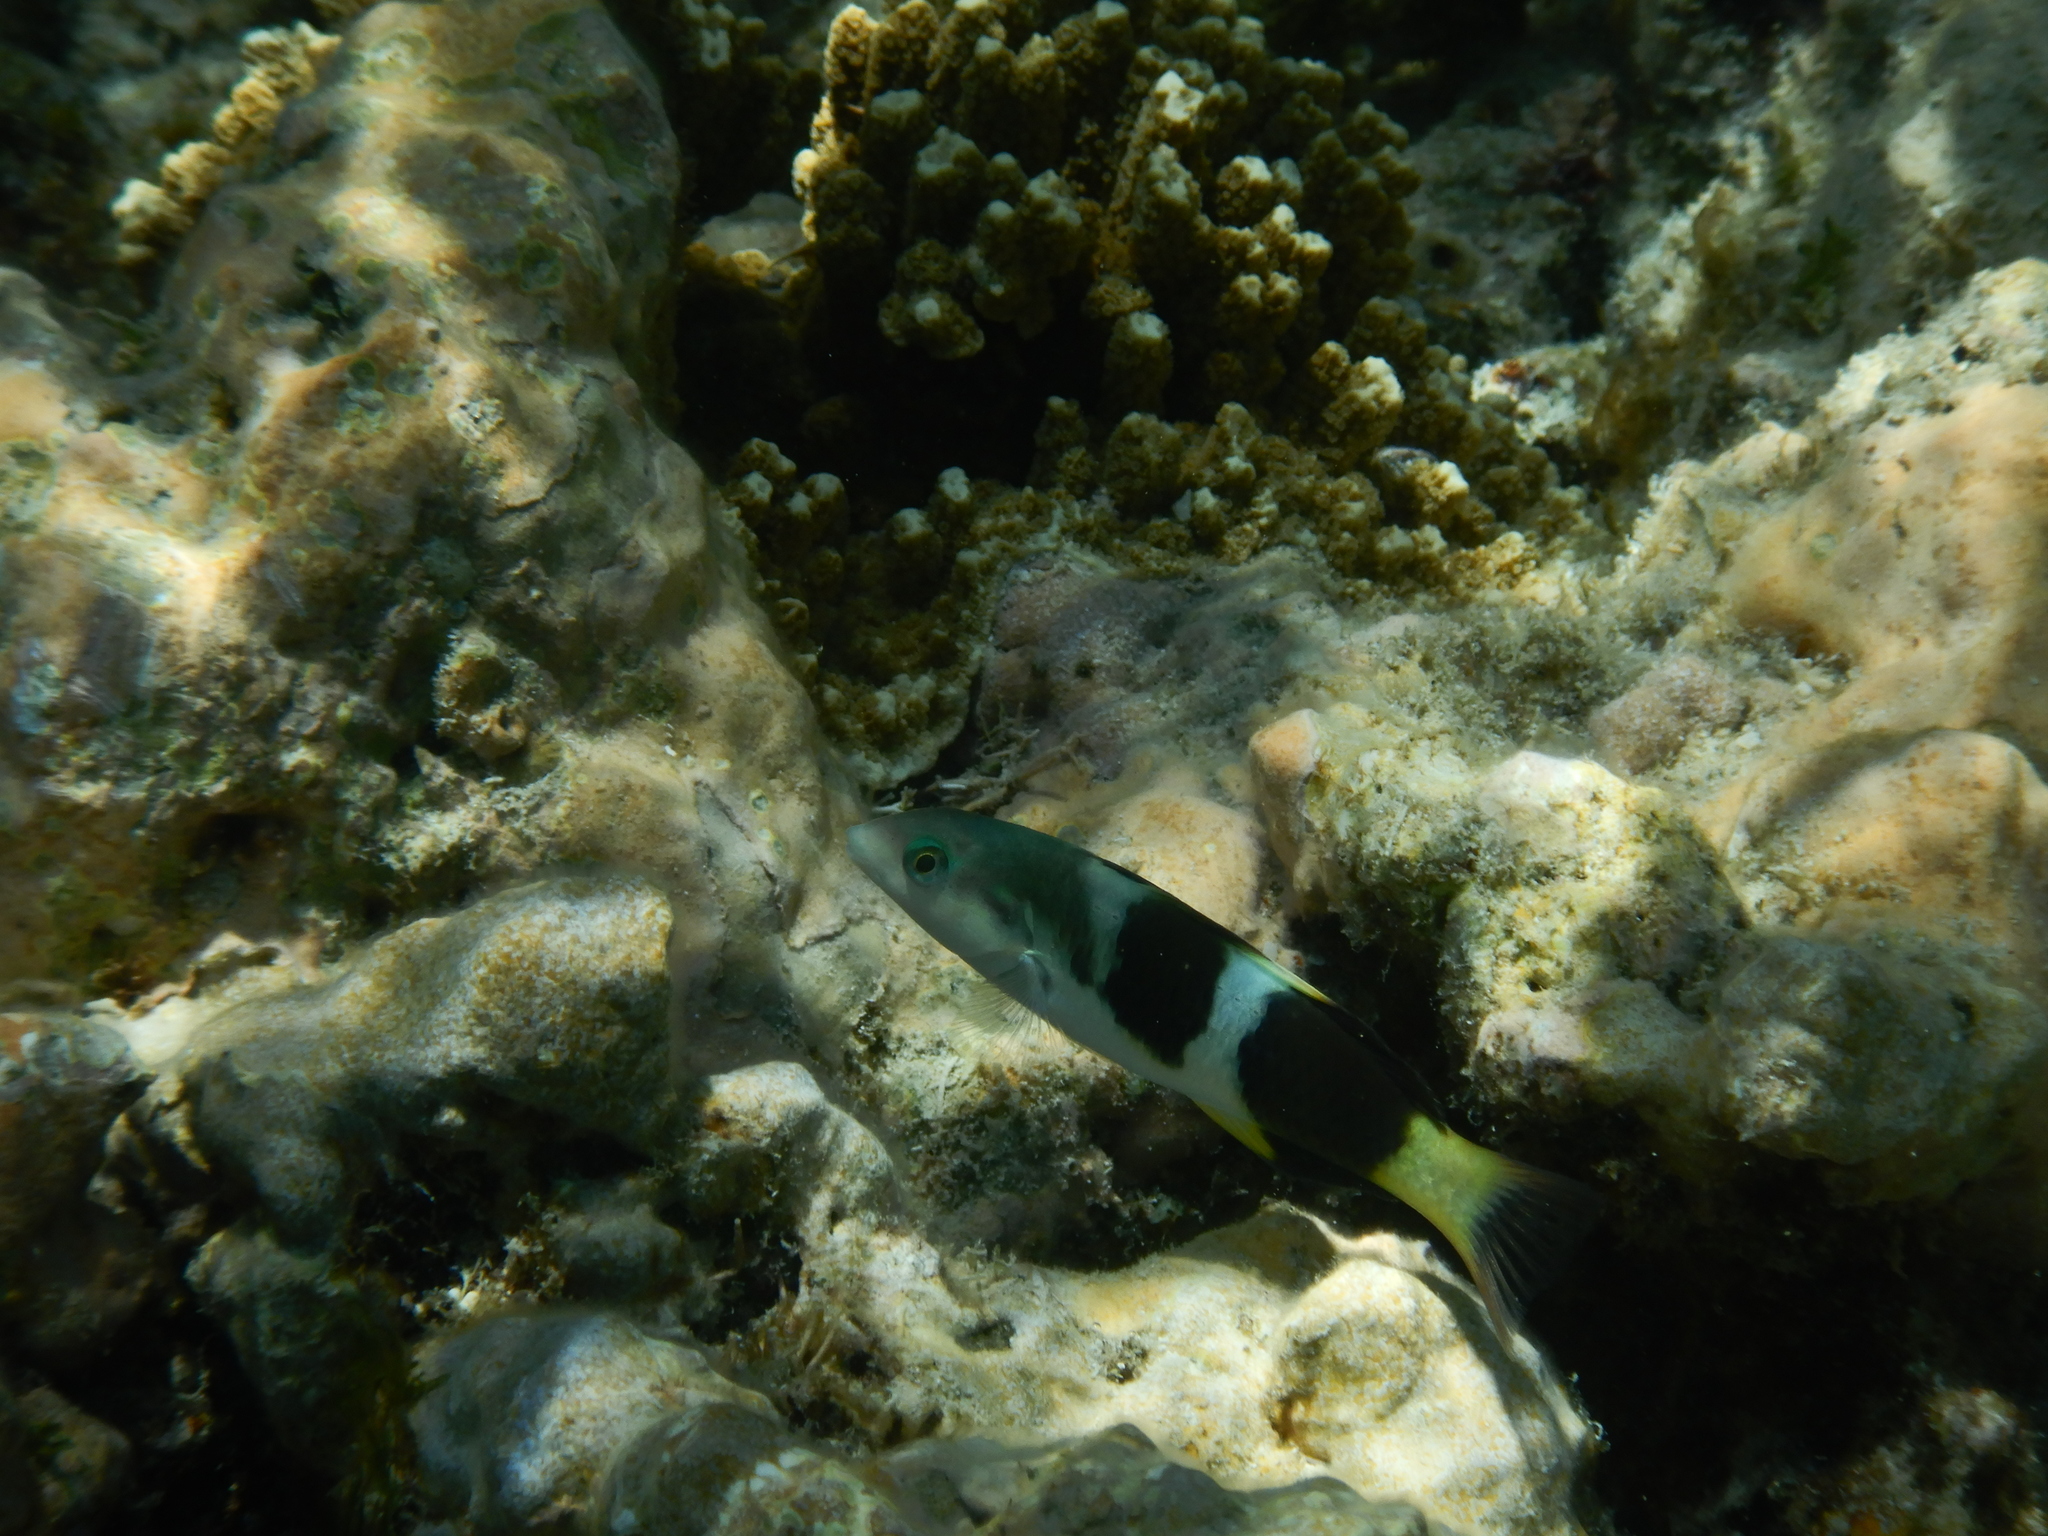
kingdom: Animalia
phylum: Chordata
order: Perciformes
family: Labridae
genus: Thalassoma
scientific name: Thalassoma nigrofasciatum
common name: Black-barred wrasse
